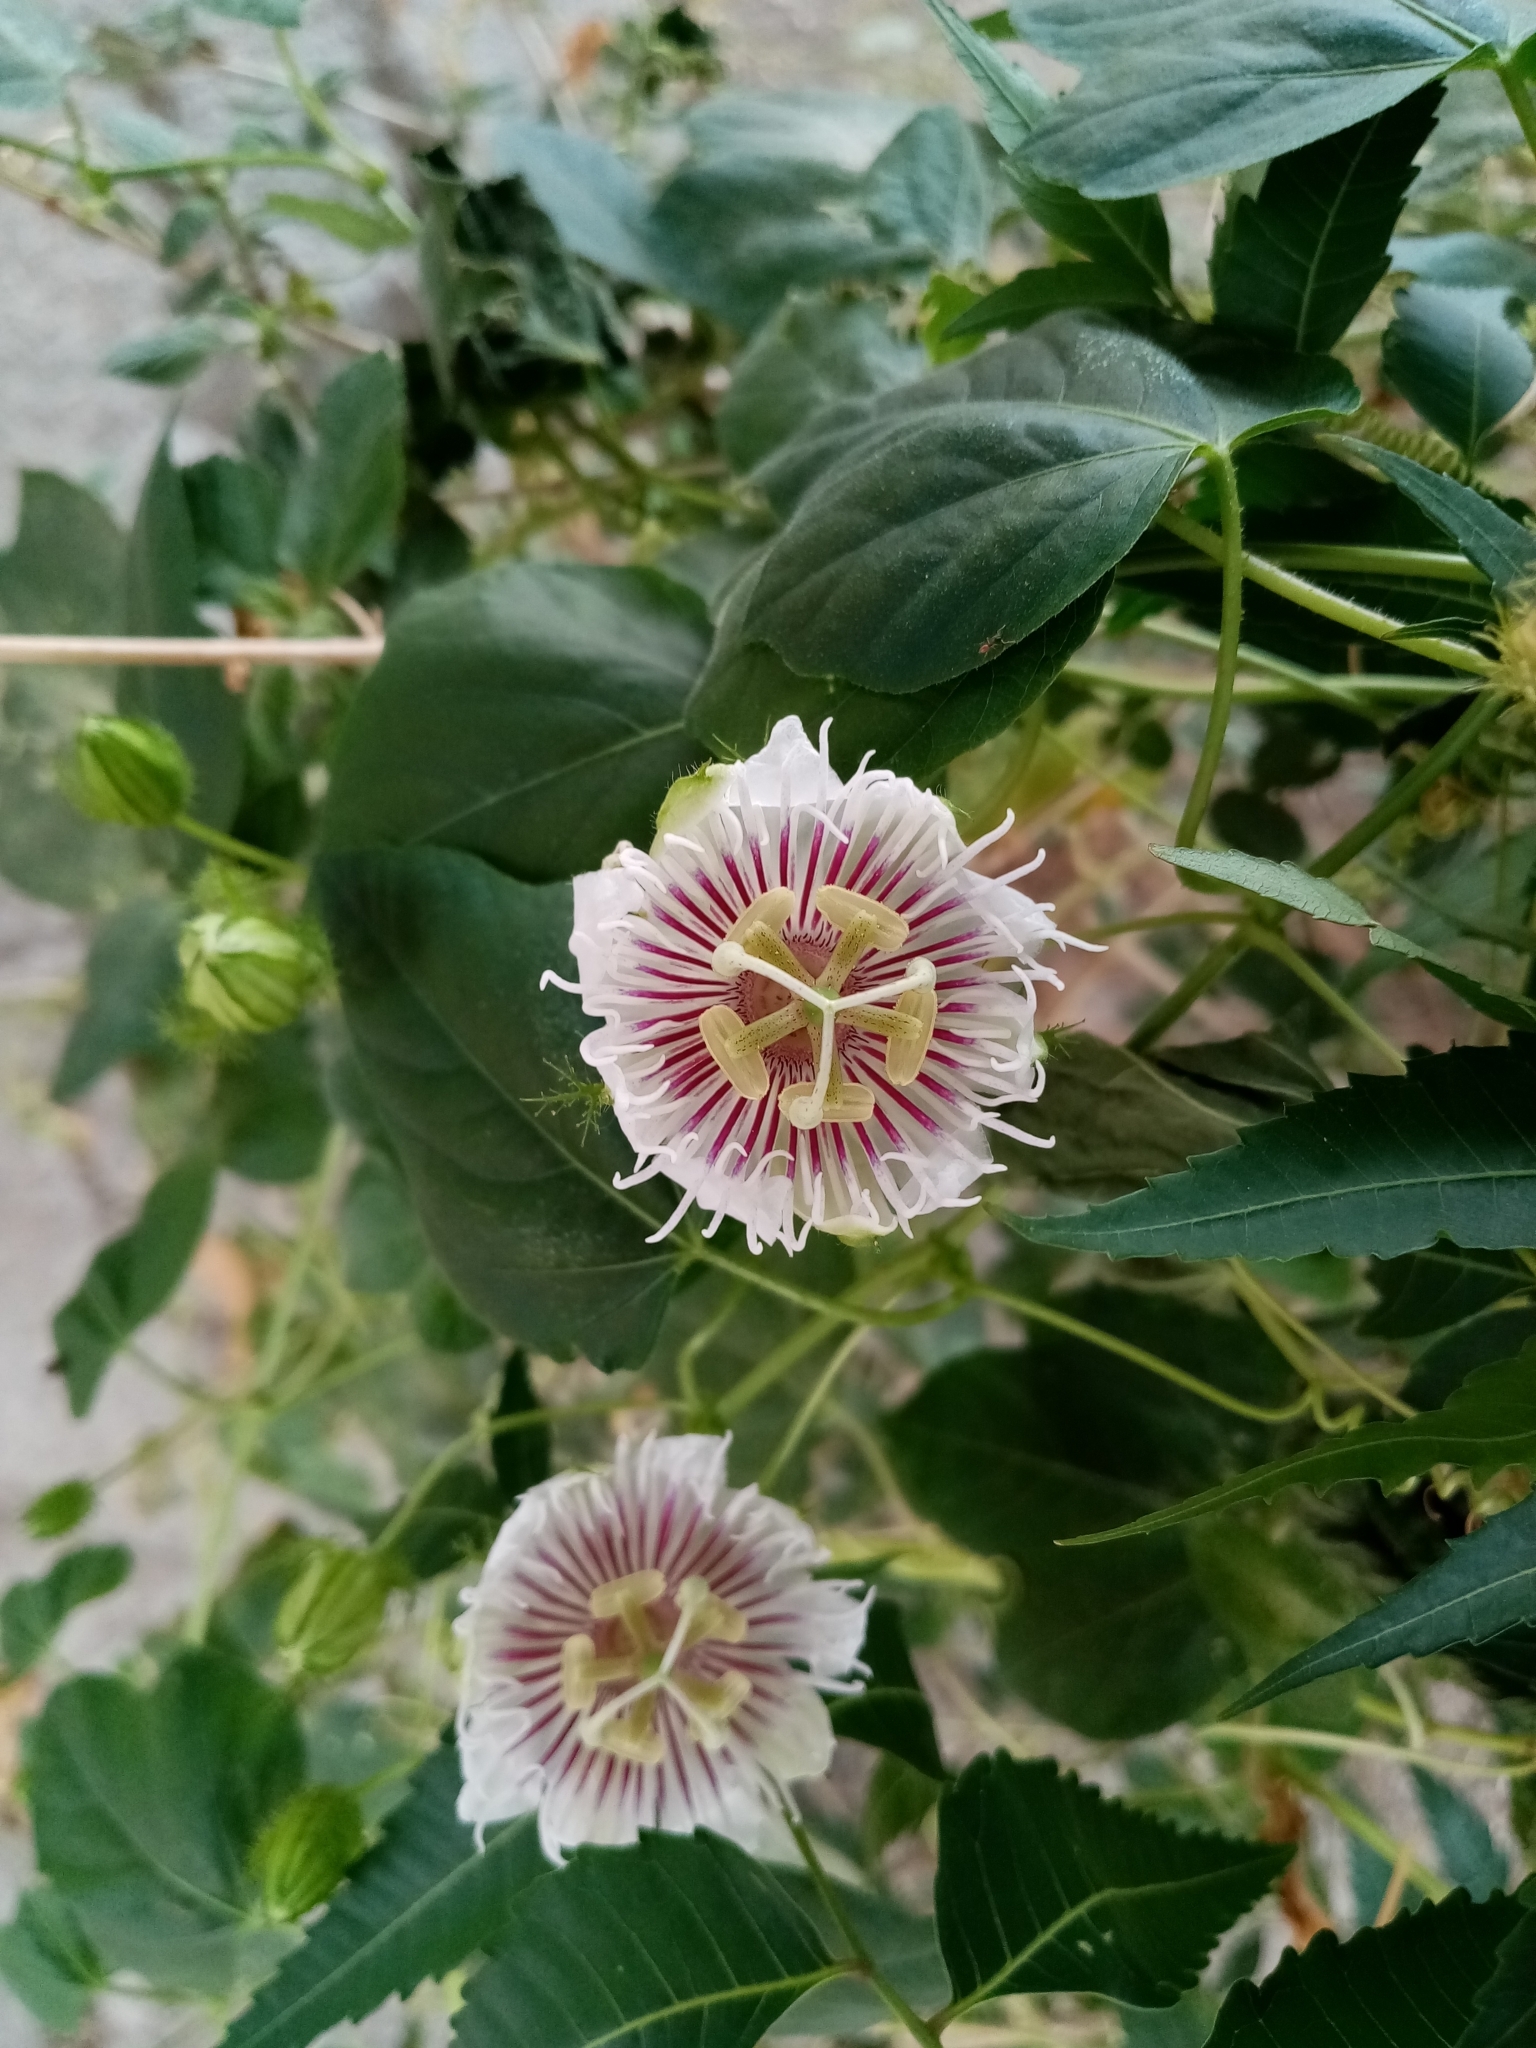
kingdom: Plantae
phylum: Tracheophyta
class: Magnoliopsida
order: Malpighiales
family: Passifloraceae
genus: Passiflora
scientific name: Passiflora foetida
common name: Fetid passionflower
